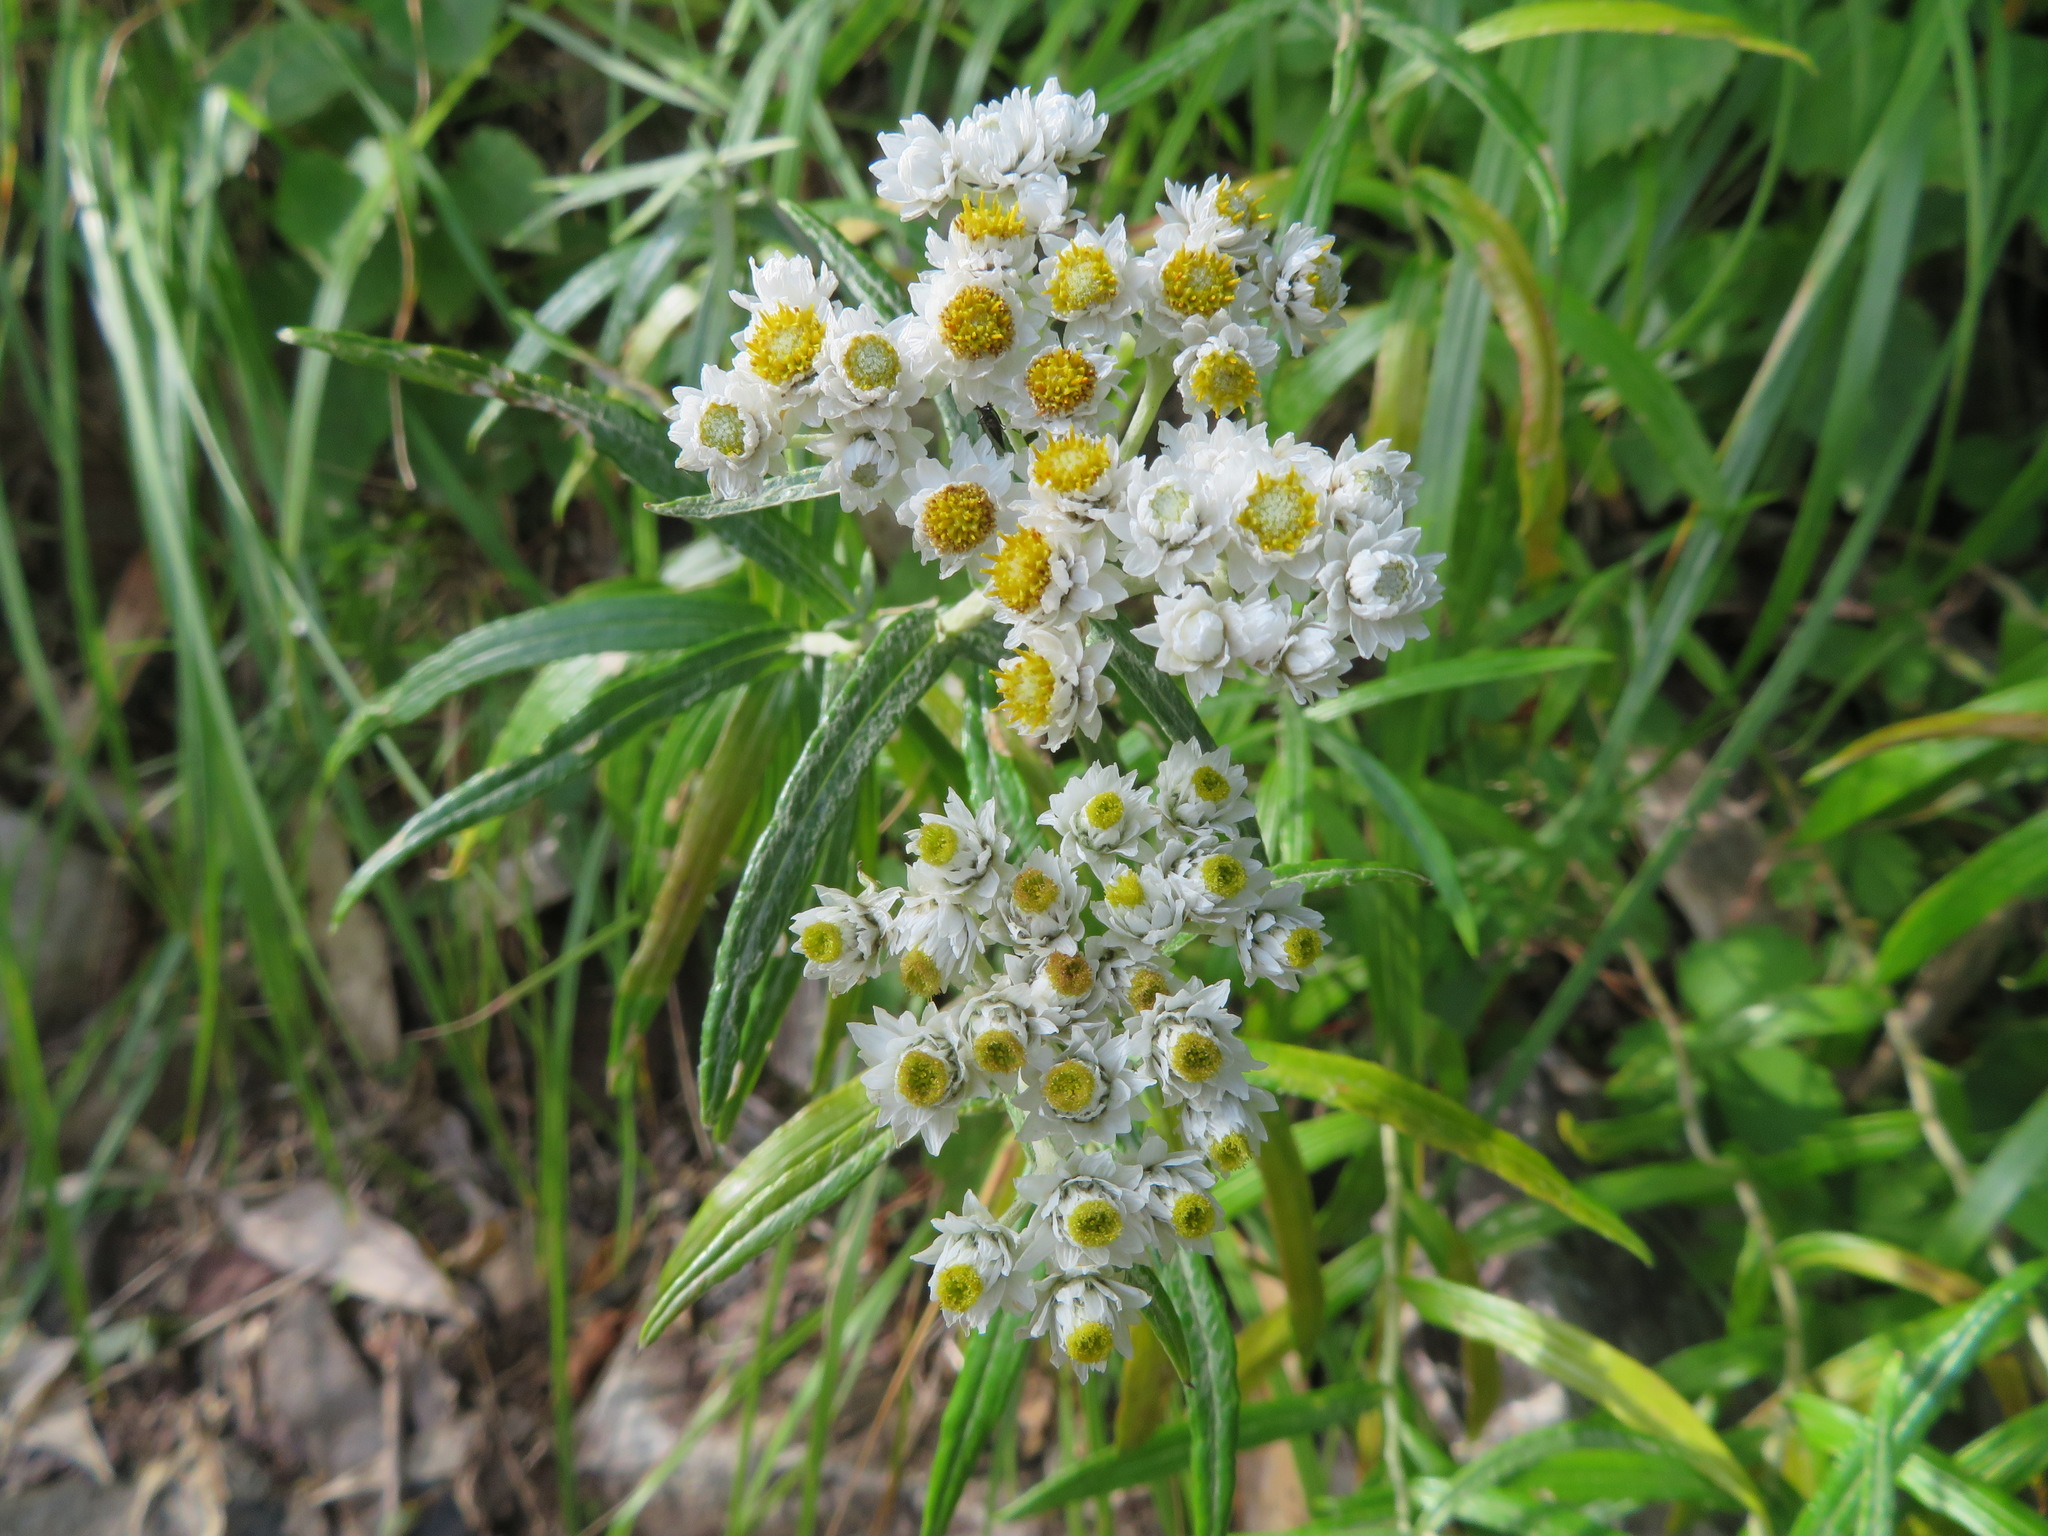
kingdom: Plantae
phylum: Tracheophyta
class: Magnoliopsida
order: Asterales
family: Asteraceae
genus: Anaphalis
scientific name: Anaphalis margaritacea
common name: Pearly everlasting
